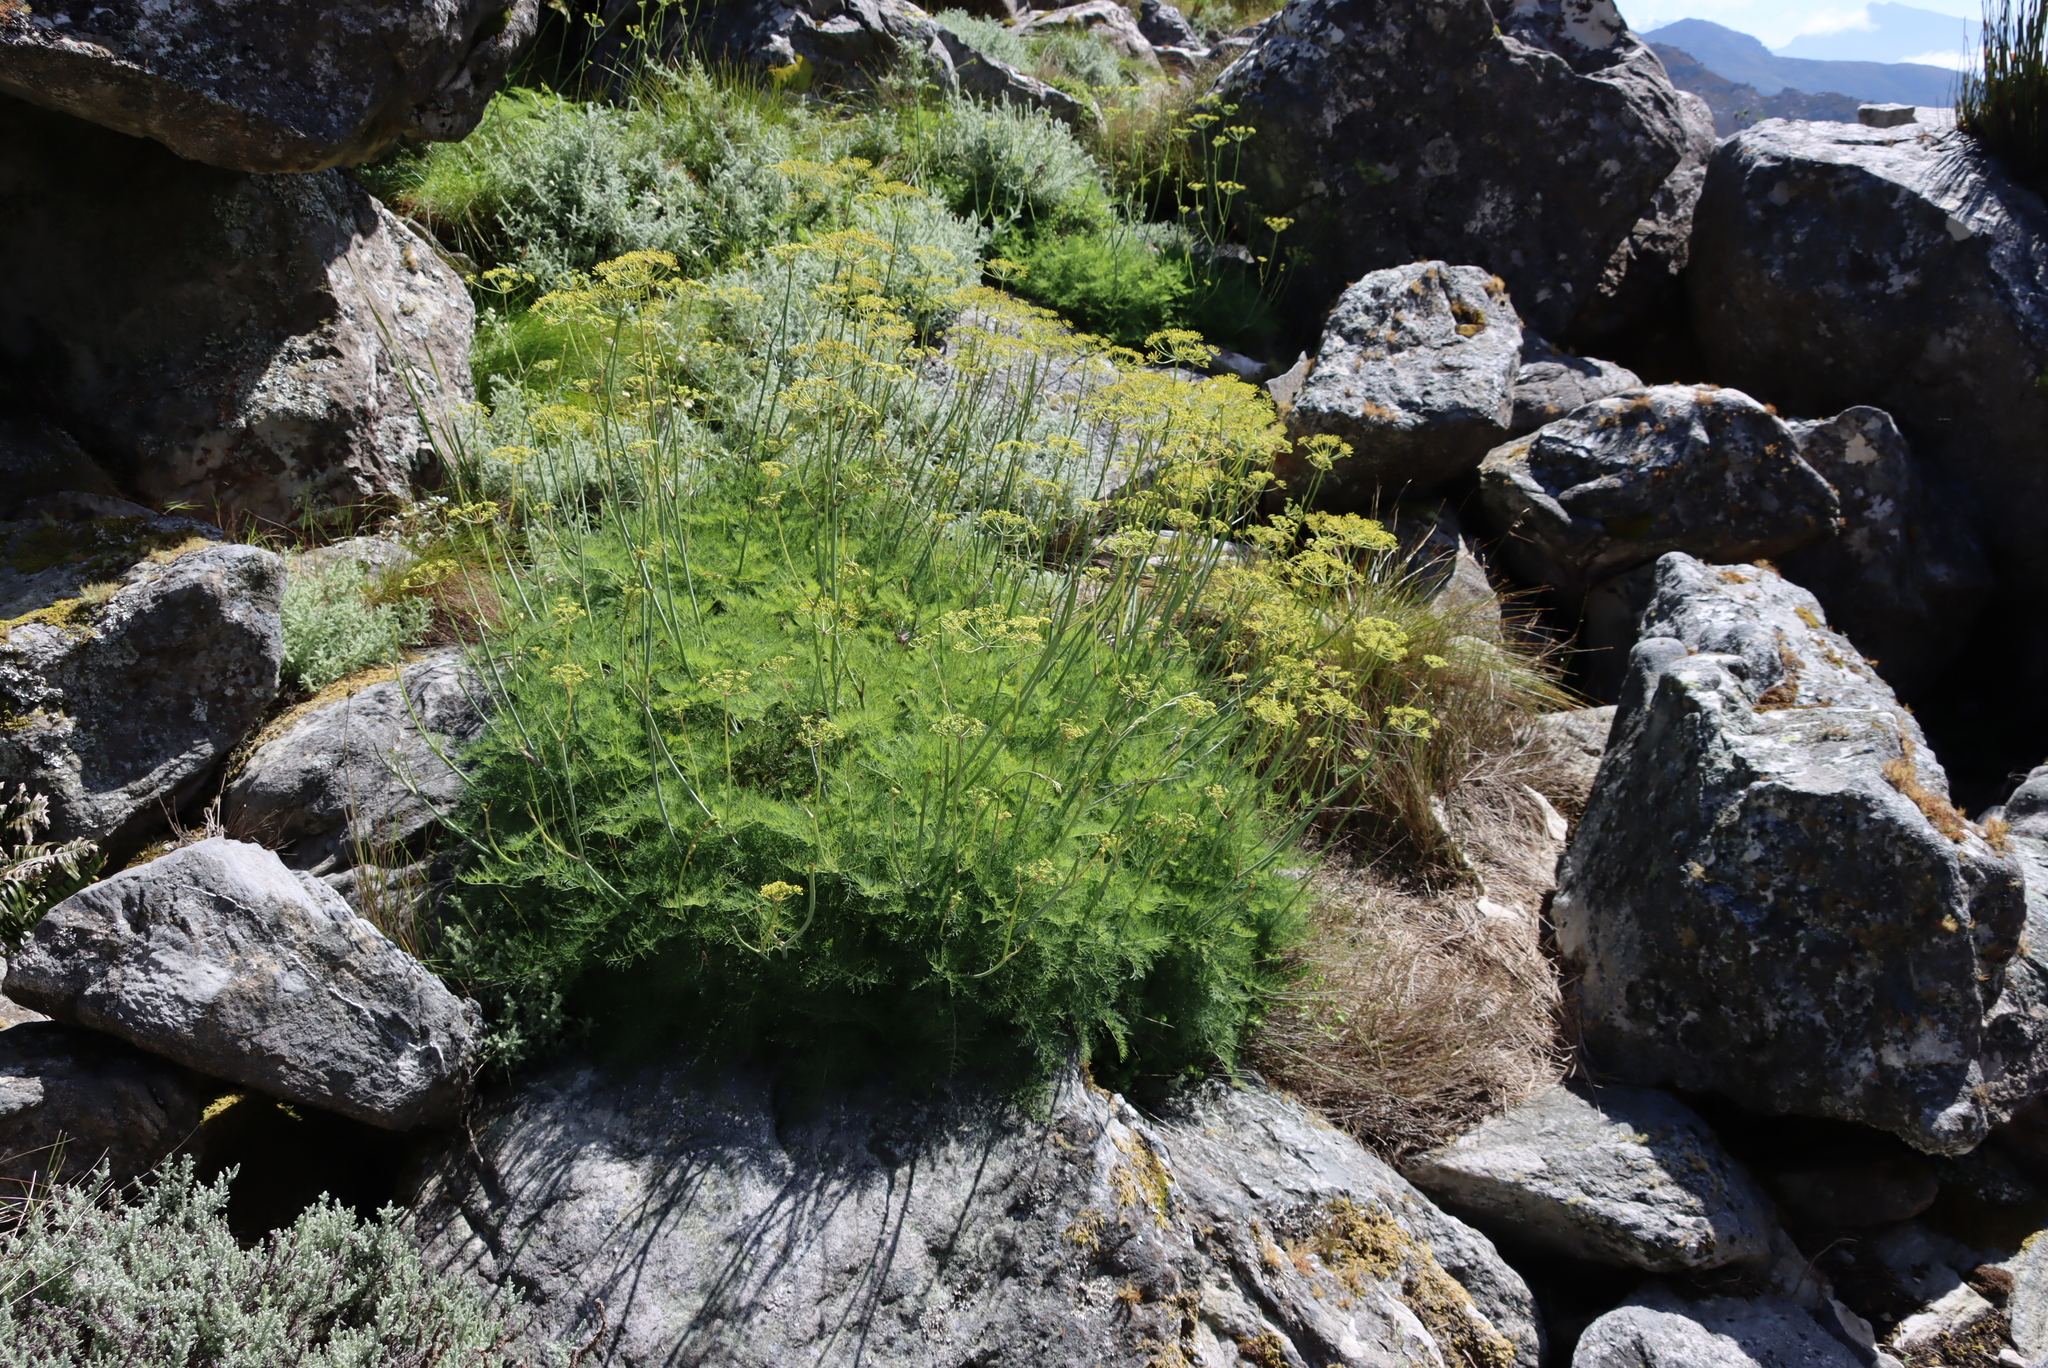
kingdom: Plantae
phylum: Tracheophyta
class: Magnoliopsida
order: Apiales
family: Apiaceae
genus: Notobubon
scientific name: Notobubon sonderi
